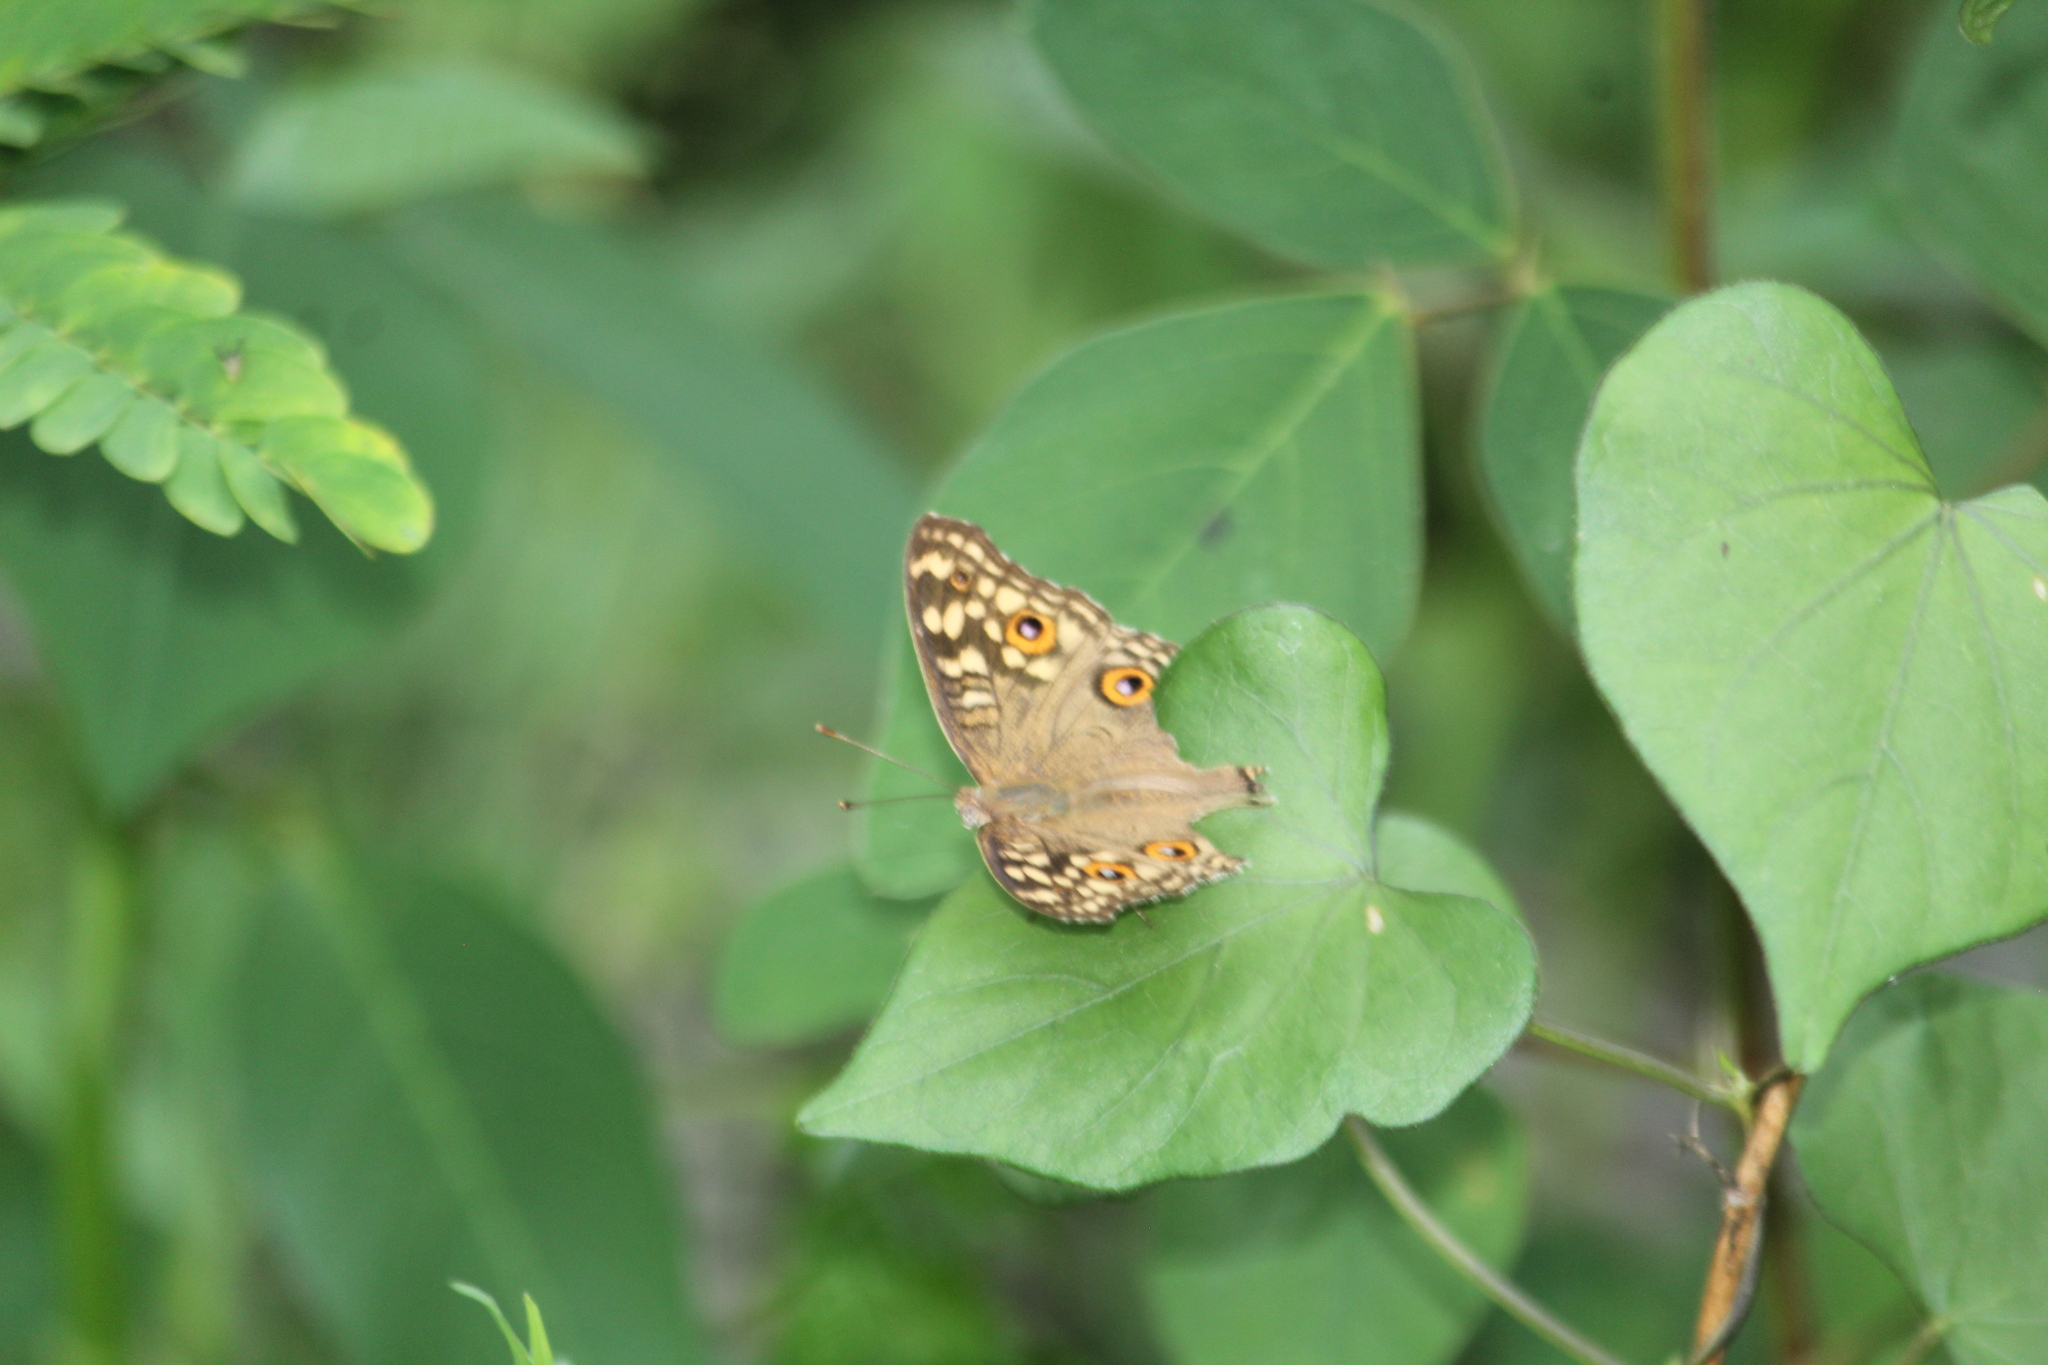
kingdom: Animalia
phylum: Arthropoda
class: Insecta
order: Lepidoptera
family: Nymphalidae
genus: Junonia
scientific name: Junonia lemonias
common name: Lemon pansy
